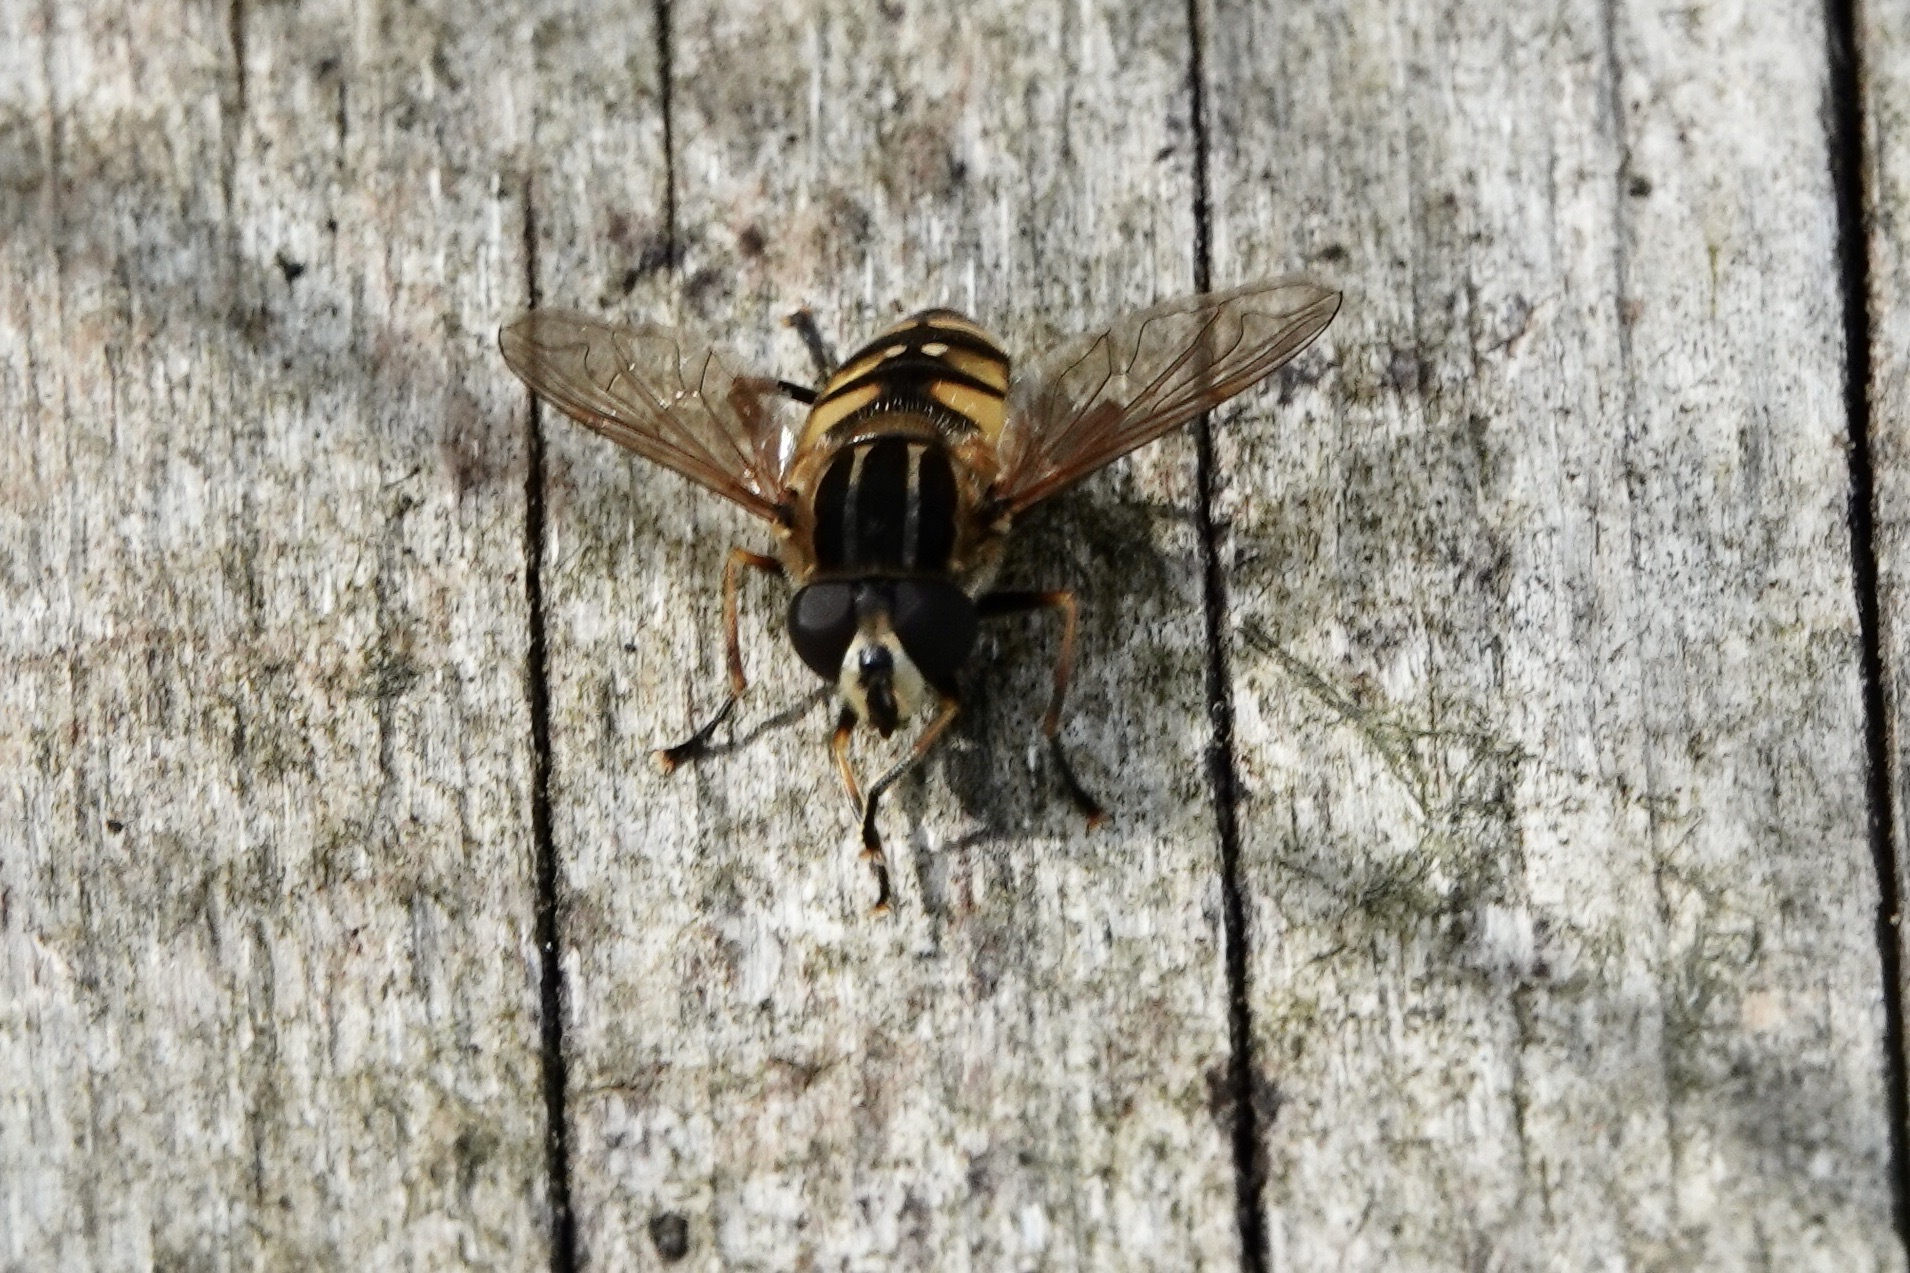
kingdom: Animalia
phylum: Arthropoda
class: Insecta
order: Diptera
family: Syrphidae
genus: Helophilus
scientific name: Helophilus pendulus
